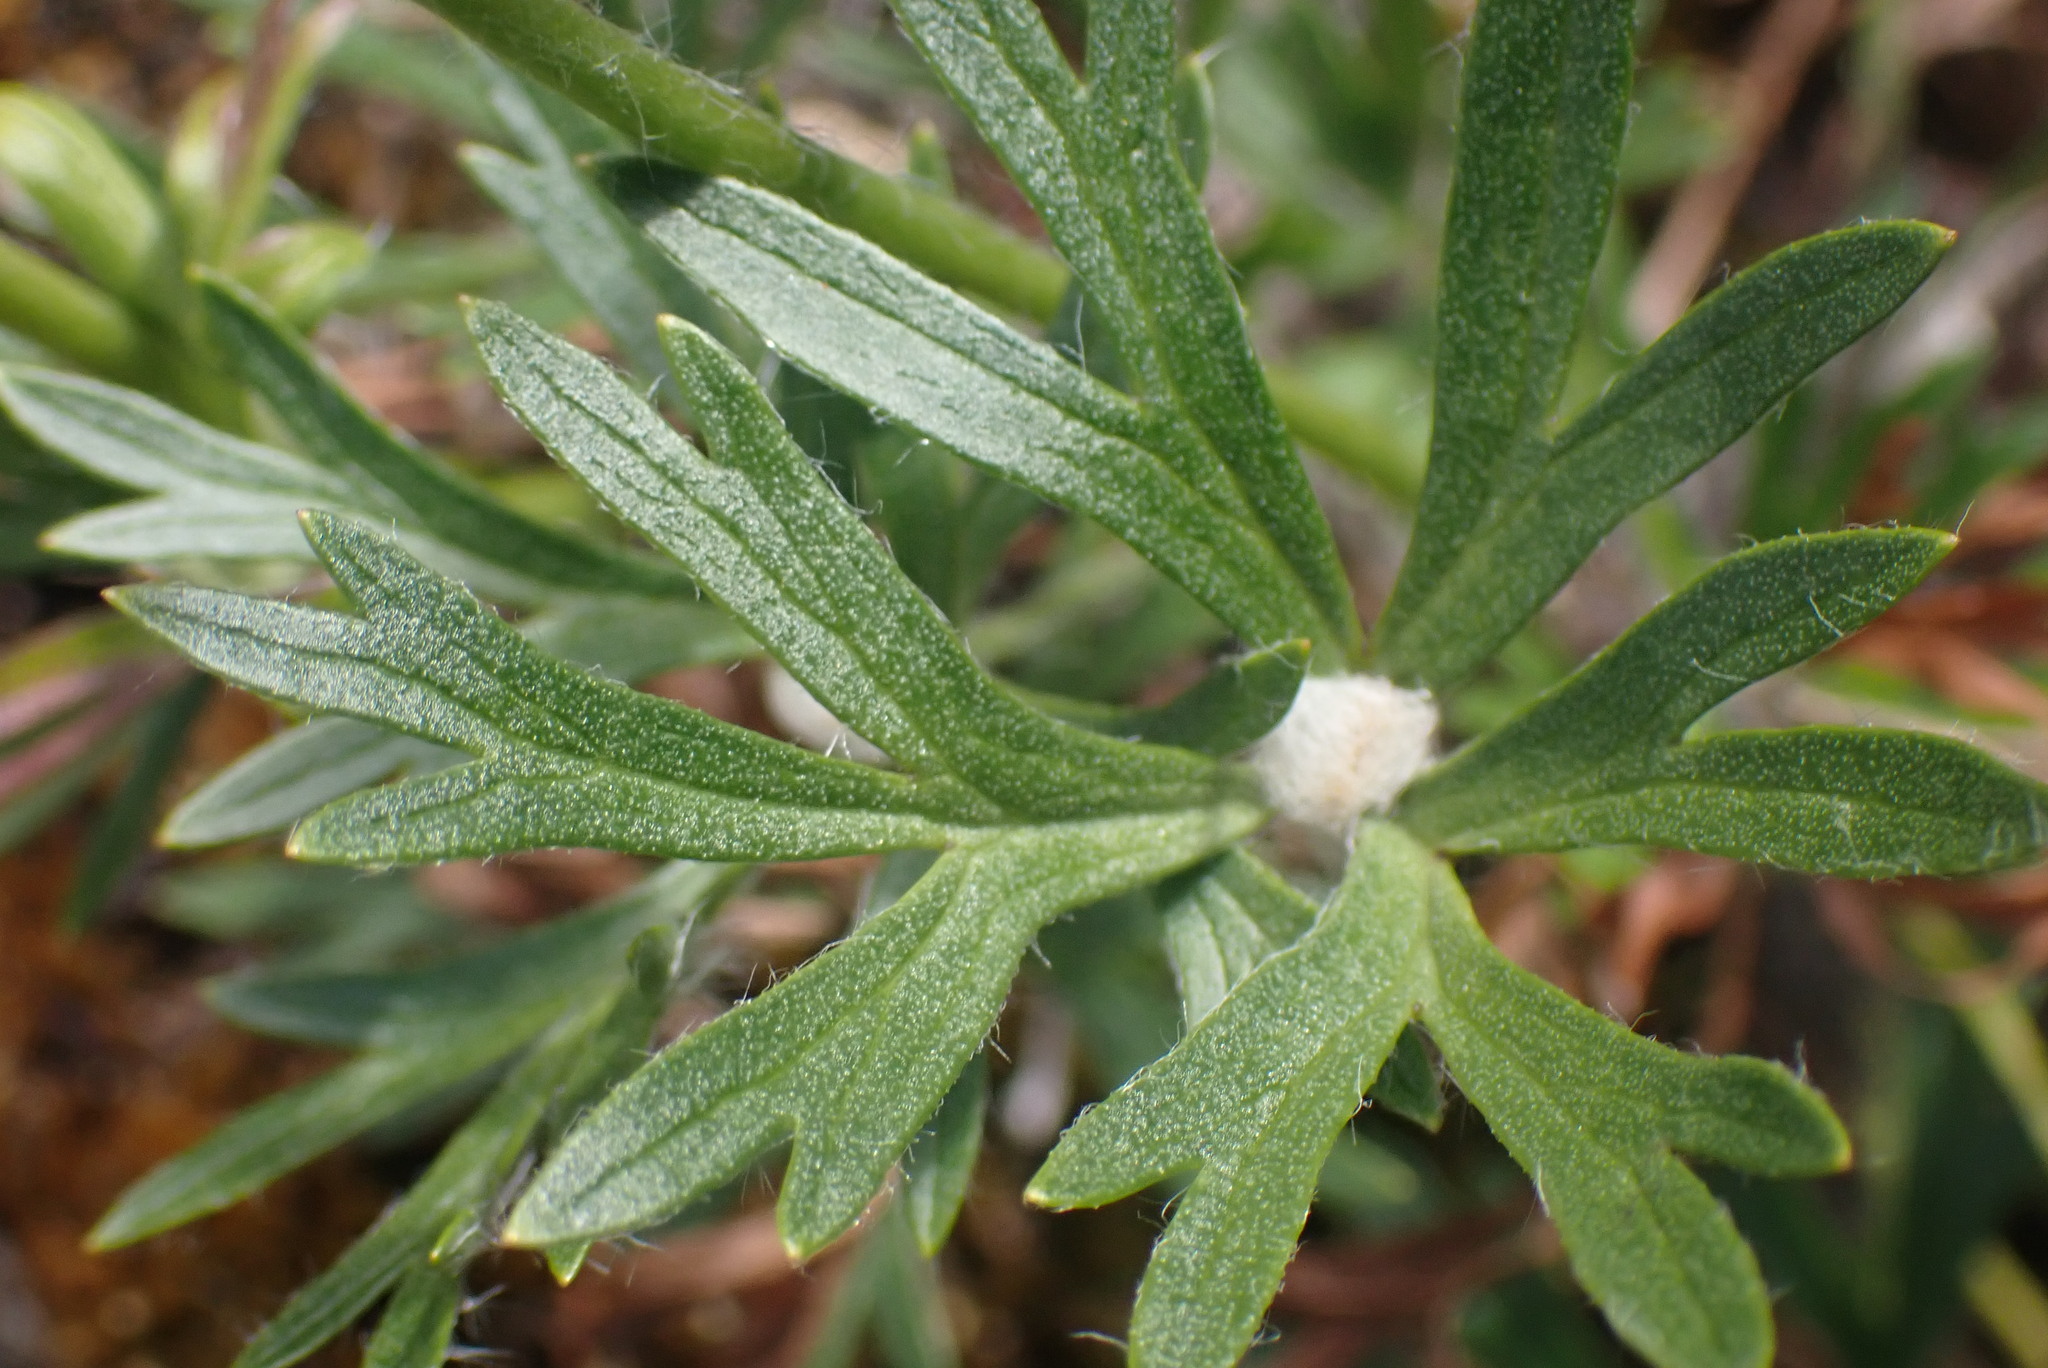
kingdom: Plantae
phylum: Tracheophyta
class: Magnoliopsida
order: Ranunculales
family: Ranunculaceae
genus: Anemone
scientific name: Anemone multifida
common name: Bird's-foot anemone
